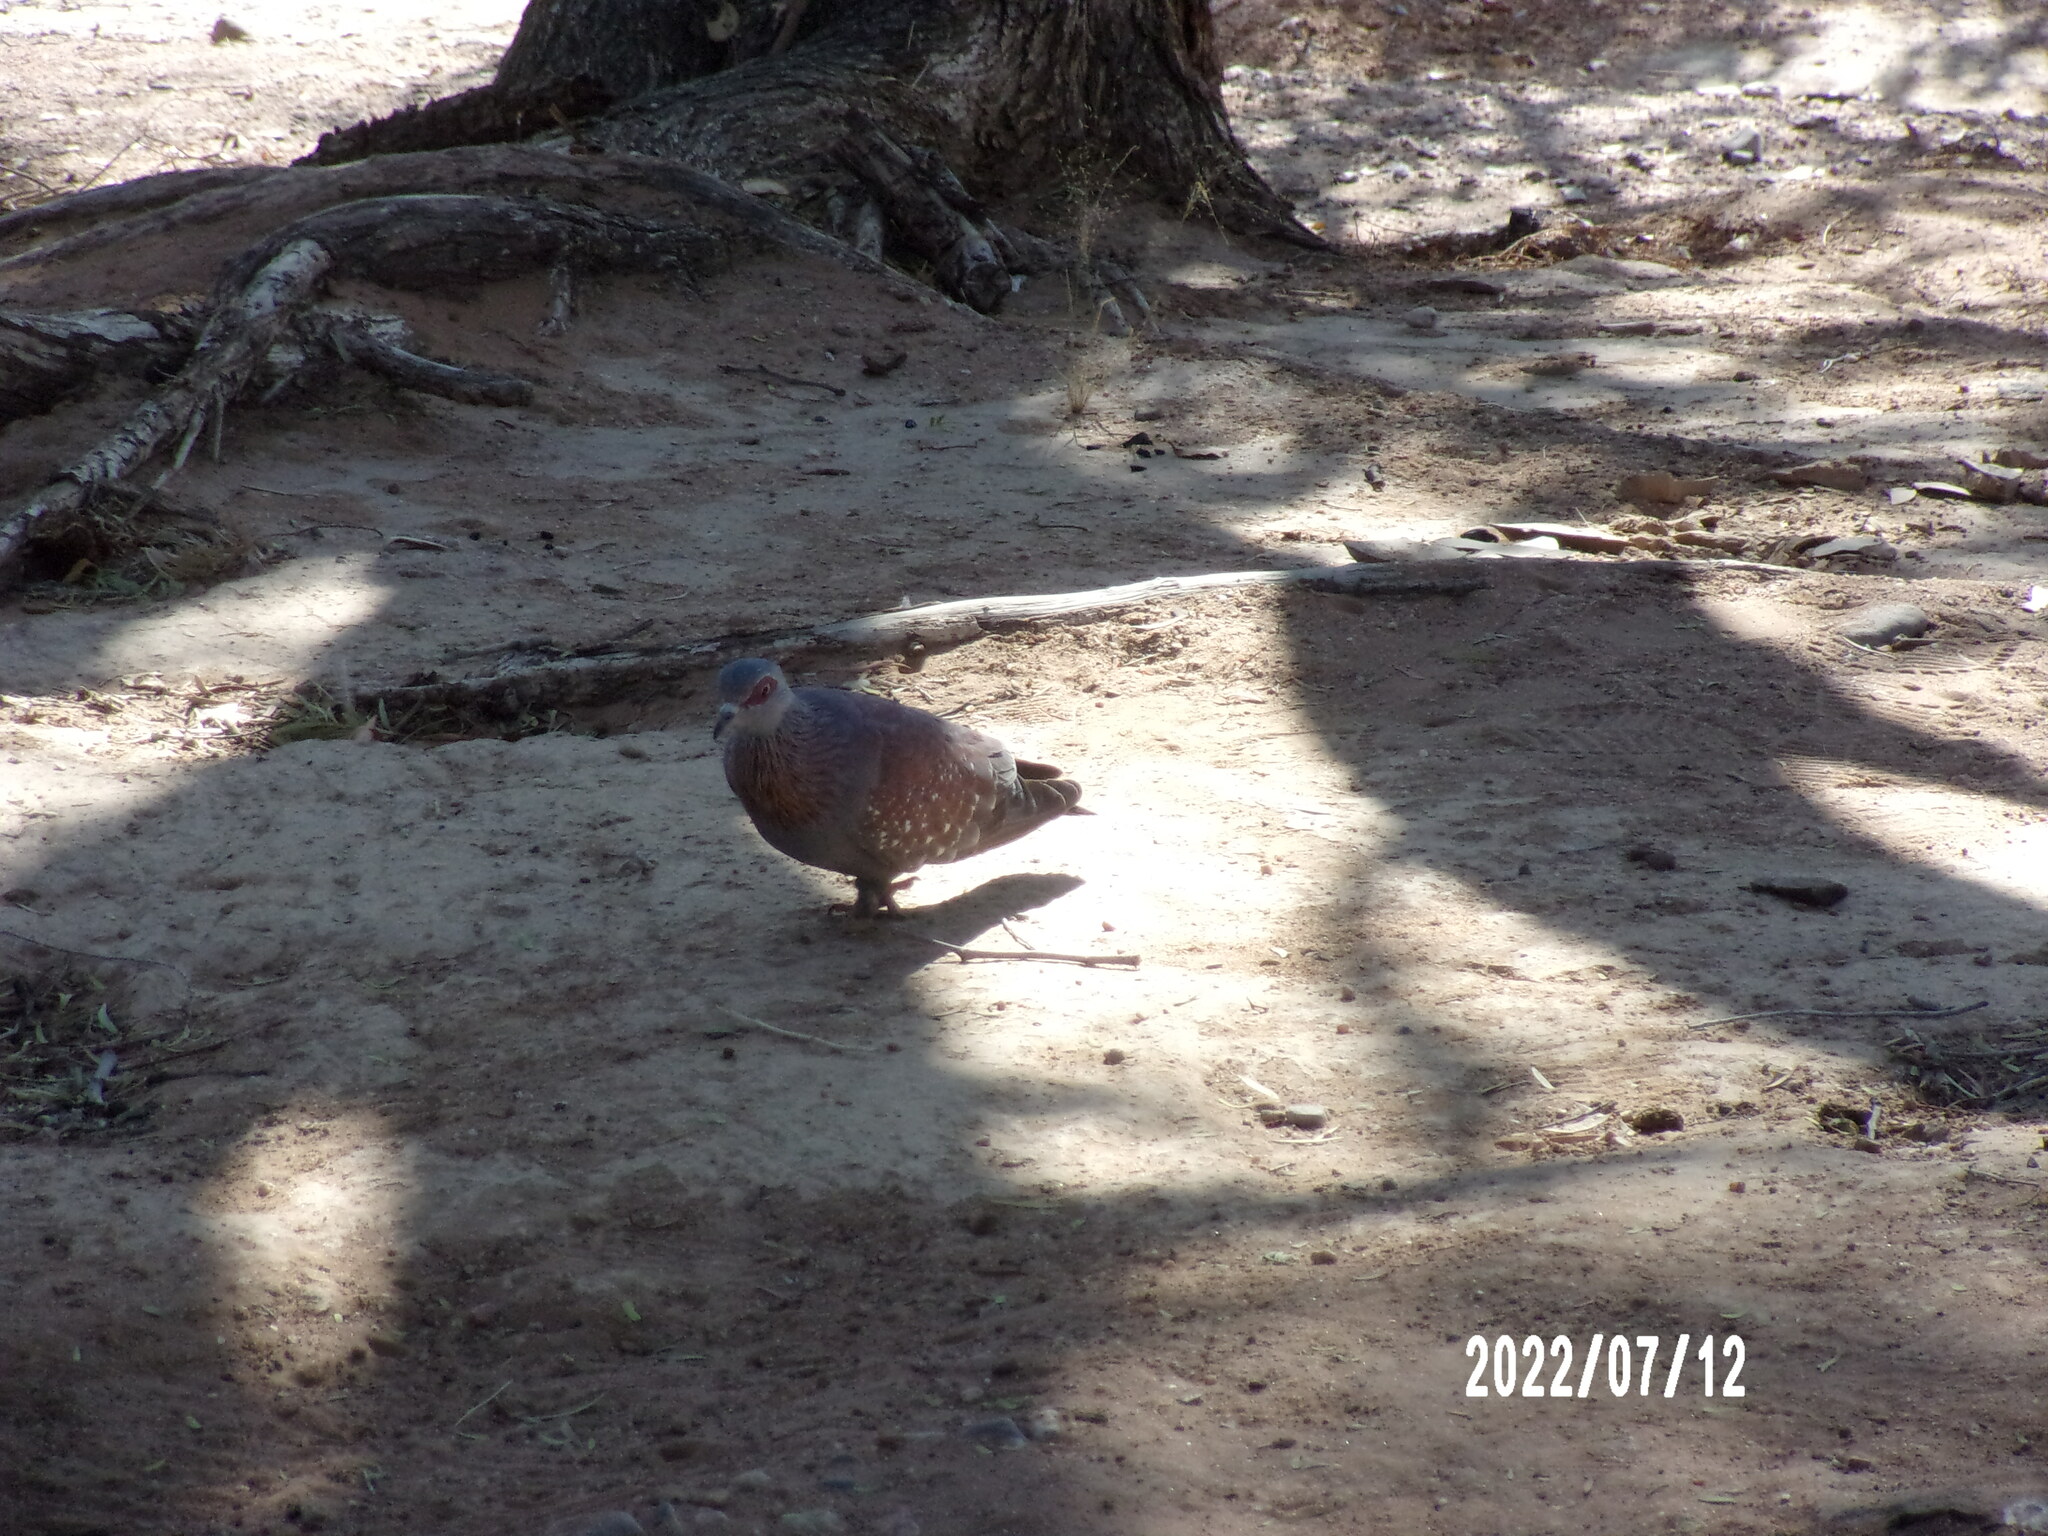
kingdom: Animalia
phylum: Chordata
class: Aves
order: Columbiformes
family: Columbidae
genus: Columba
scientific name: Columba guinea
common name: Speckled pigeon
